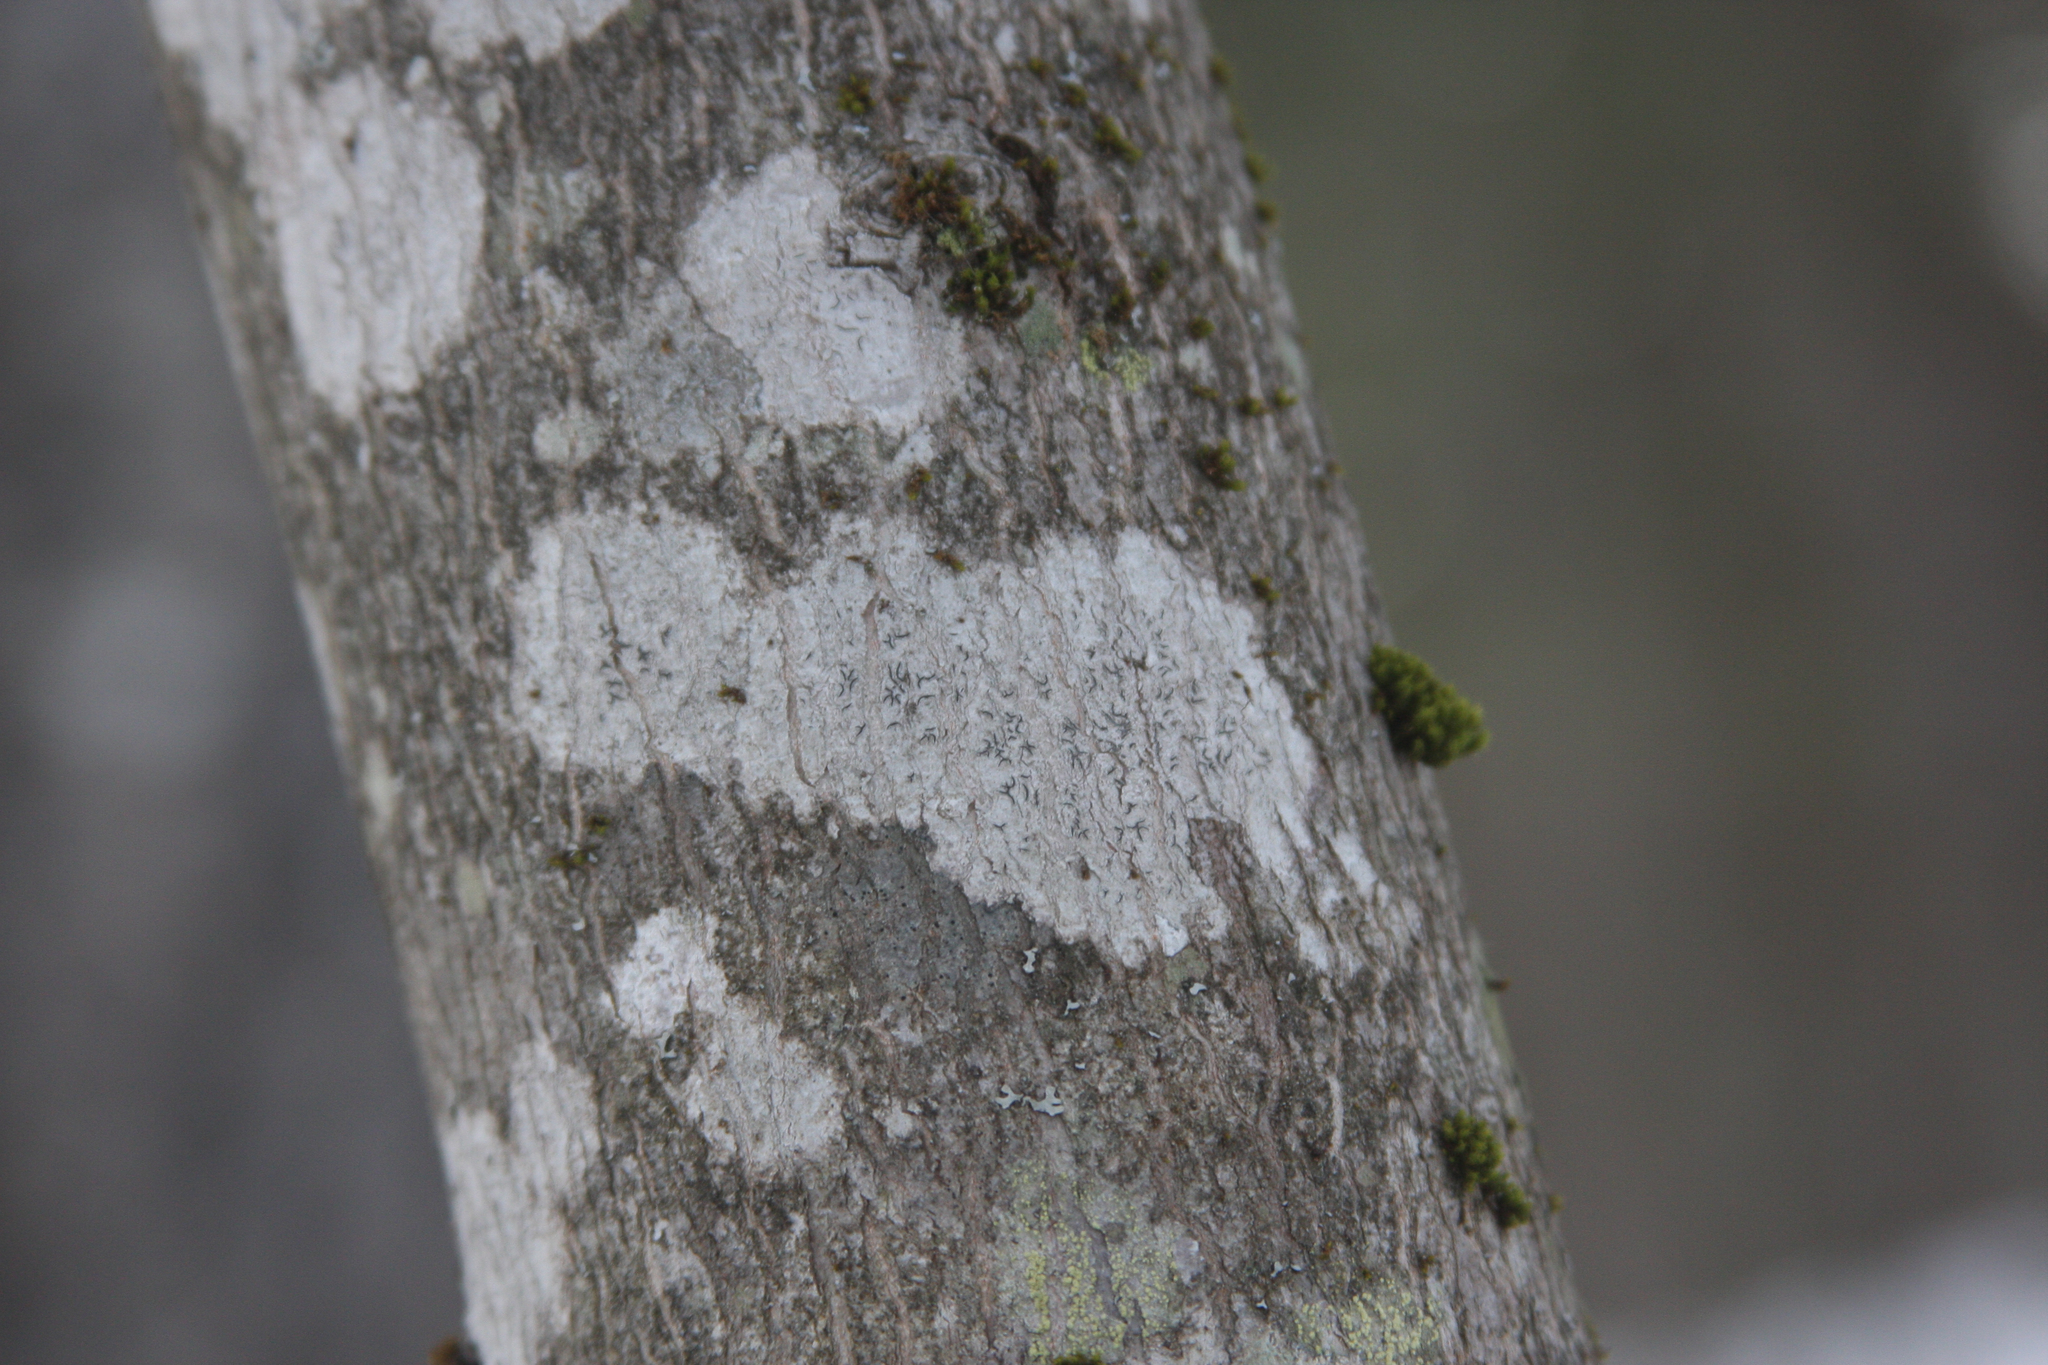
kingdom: Plantae
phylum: Bryophyta
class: Bryopsida
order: Orthotrichales
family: Orthotrichaceae
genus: Ulota
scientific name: Ulota crispa
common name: Crisped pincushion moss
